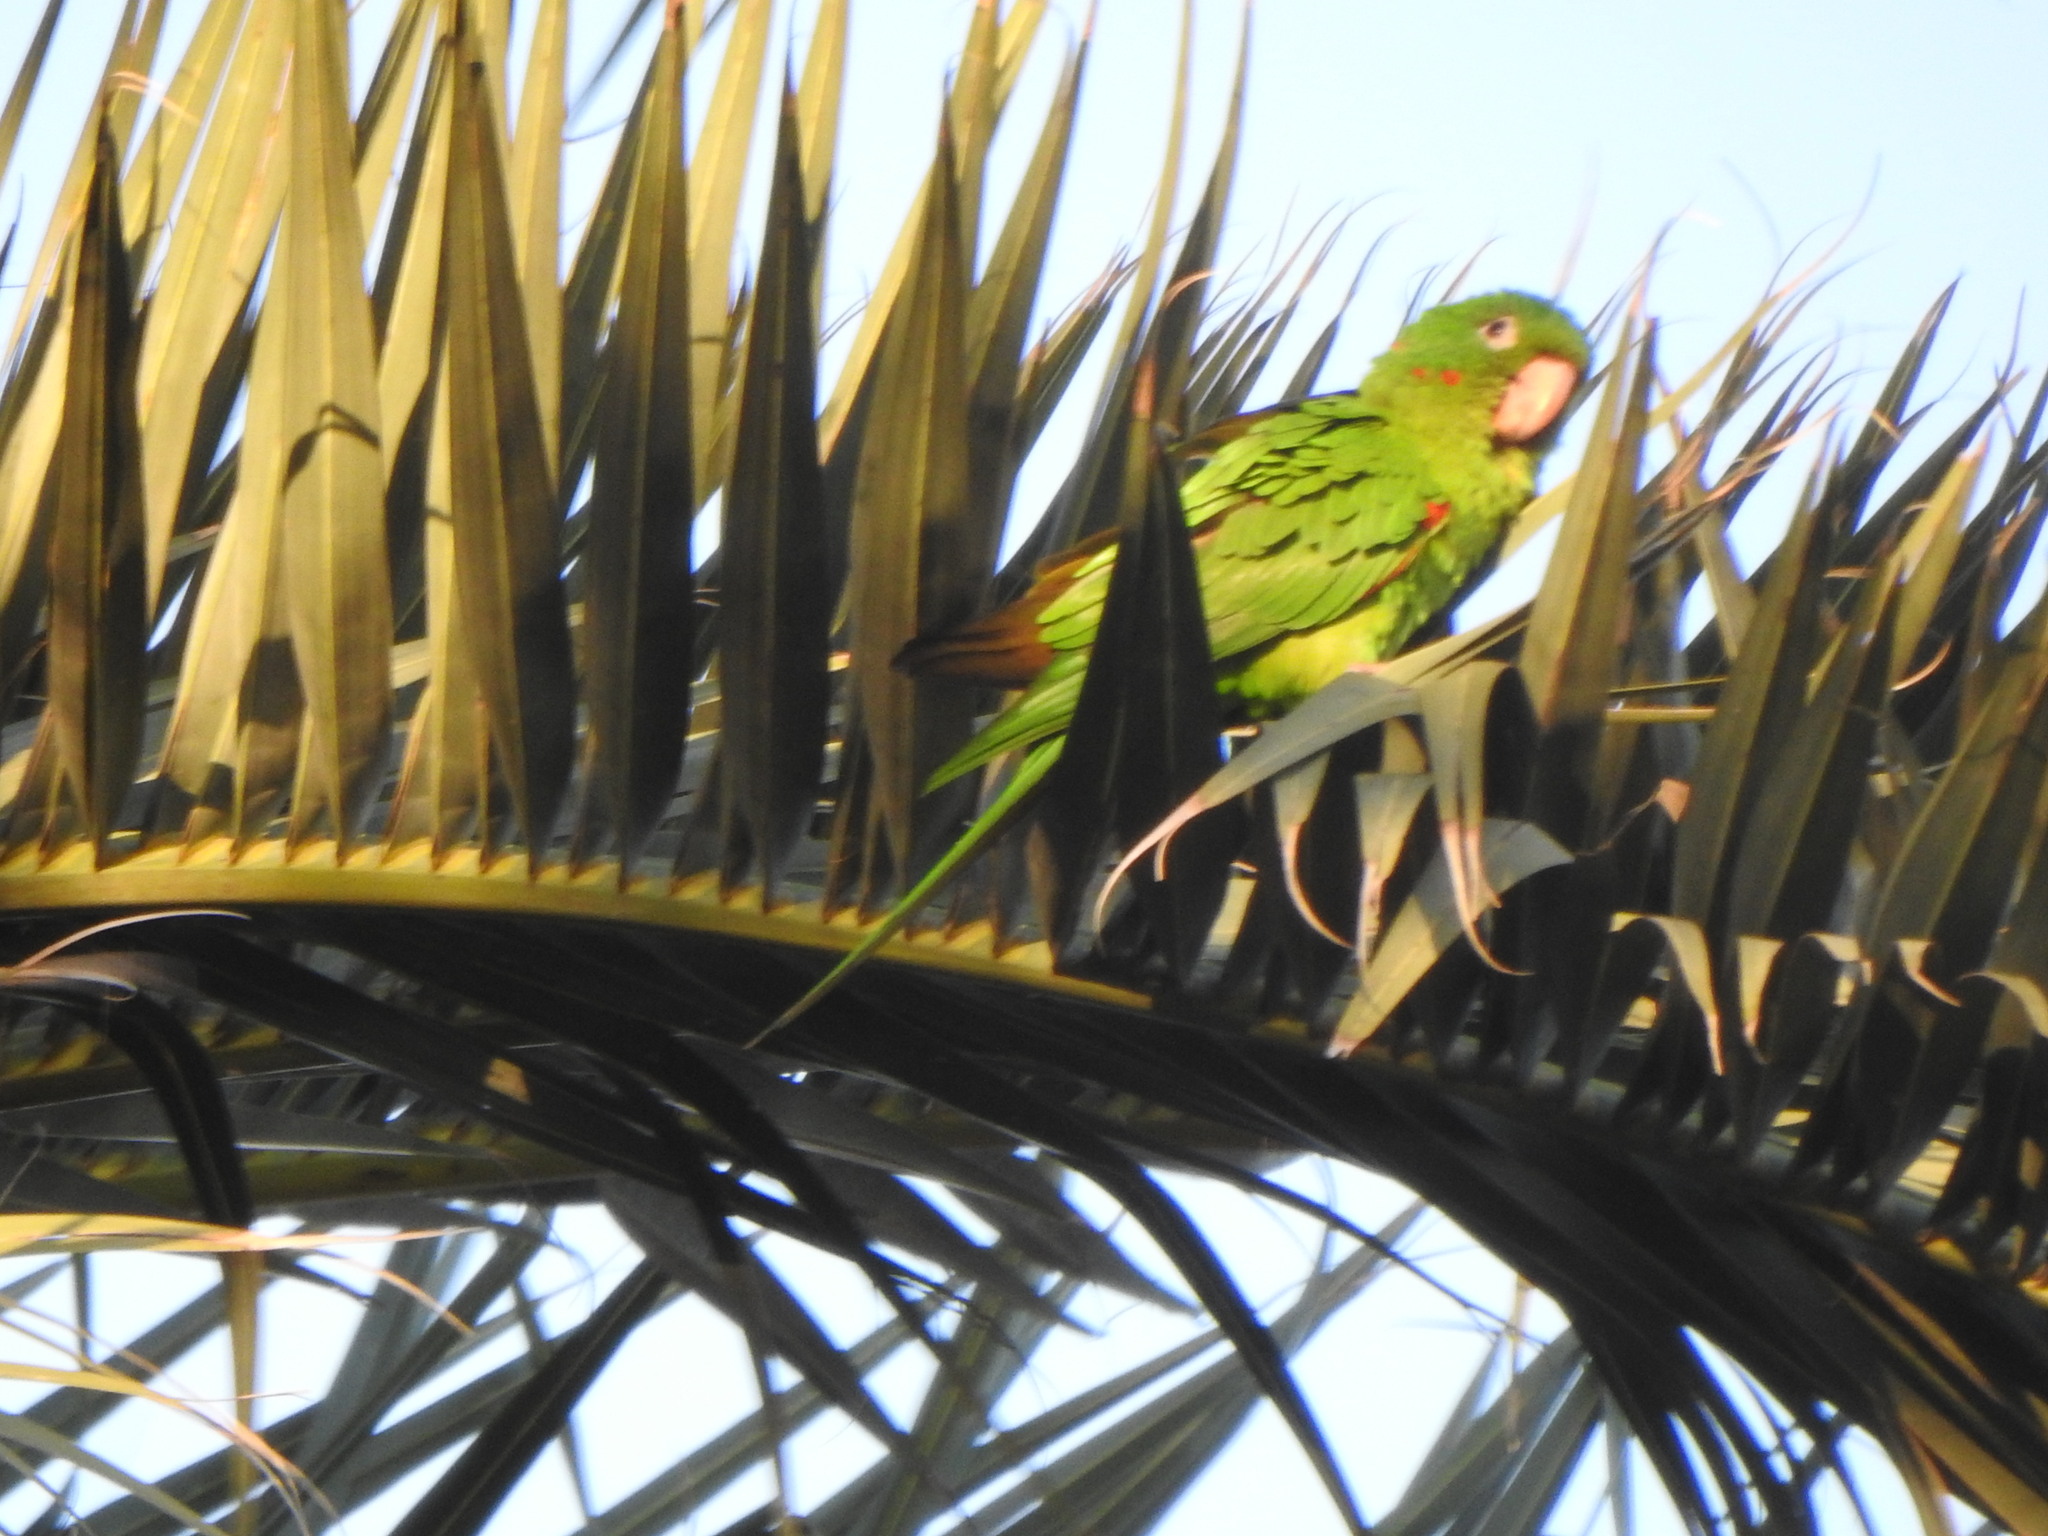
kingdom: Animalia
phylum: Chordata
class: Aves
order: Psittaciformes
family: Psittacidae
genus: Aratinga
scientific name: Aratinga leucophthalma
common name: White-eyed parakeet
